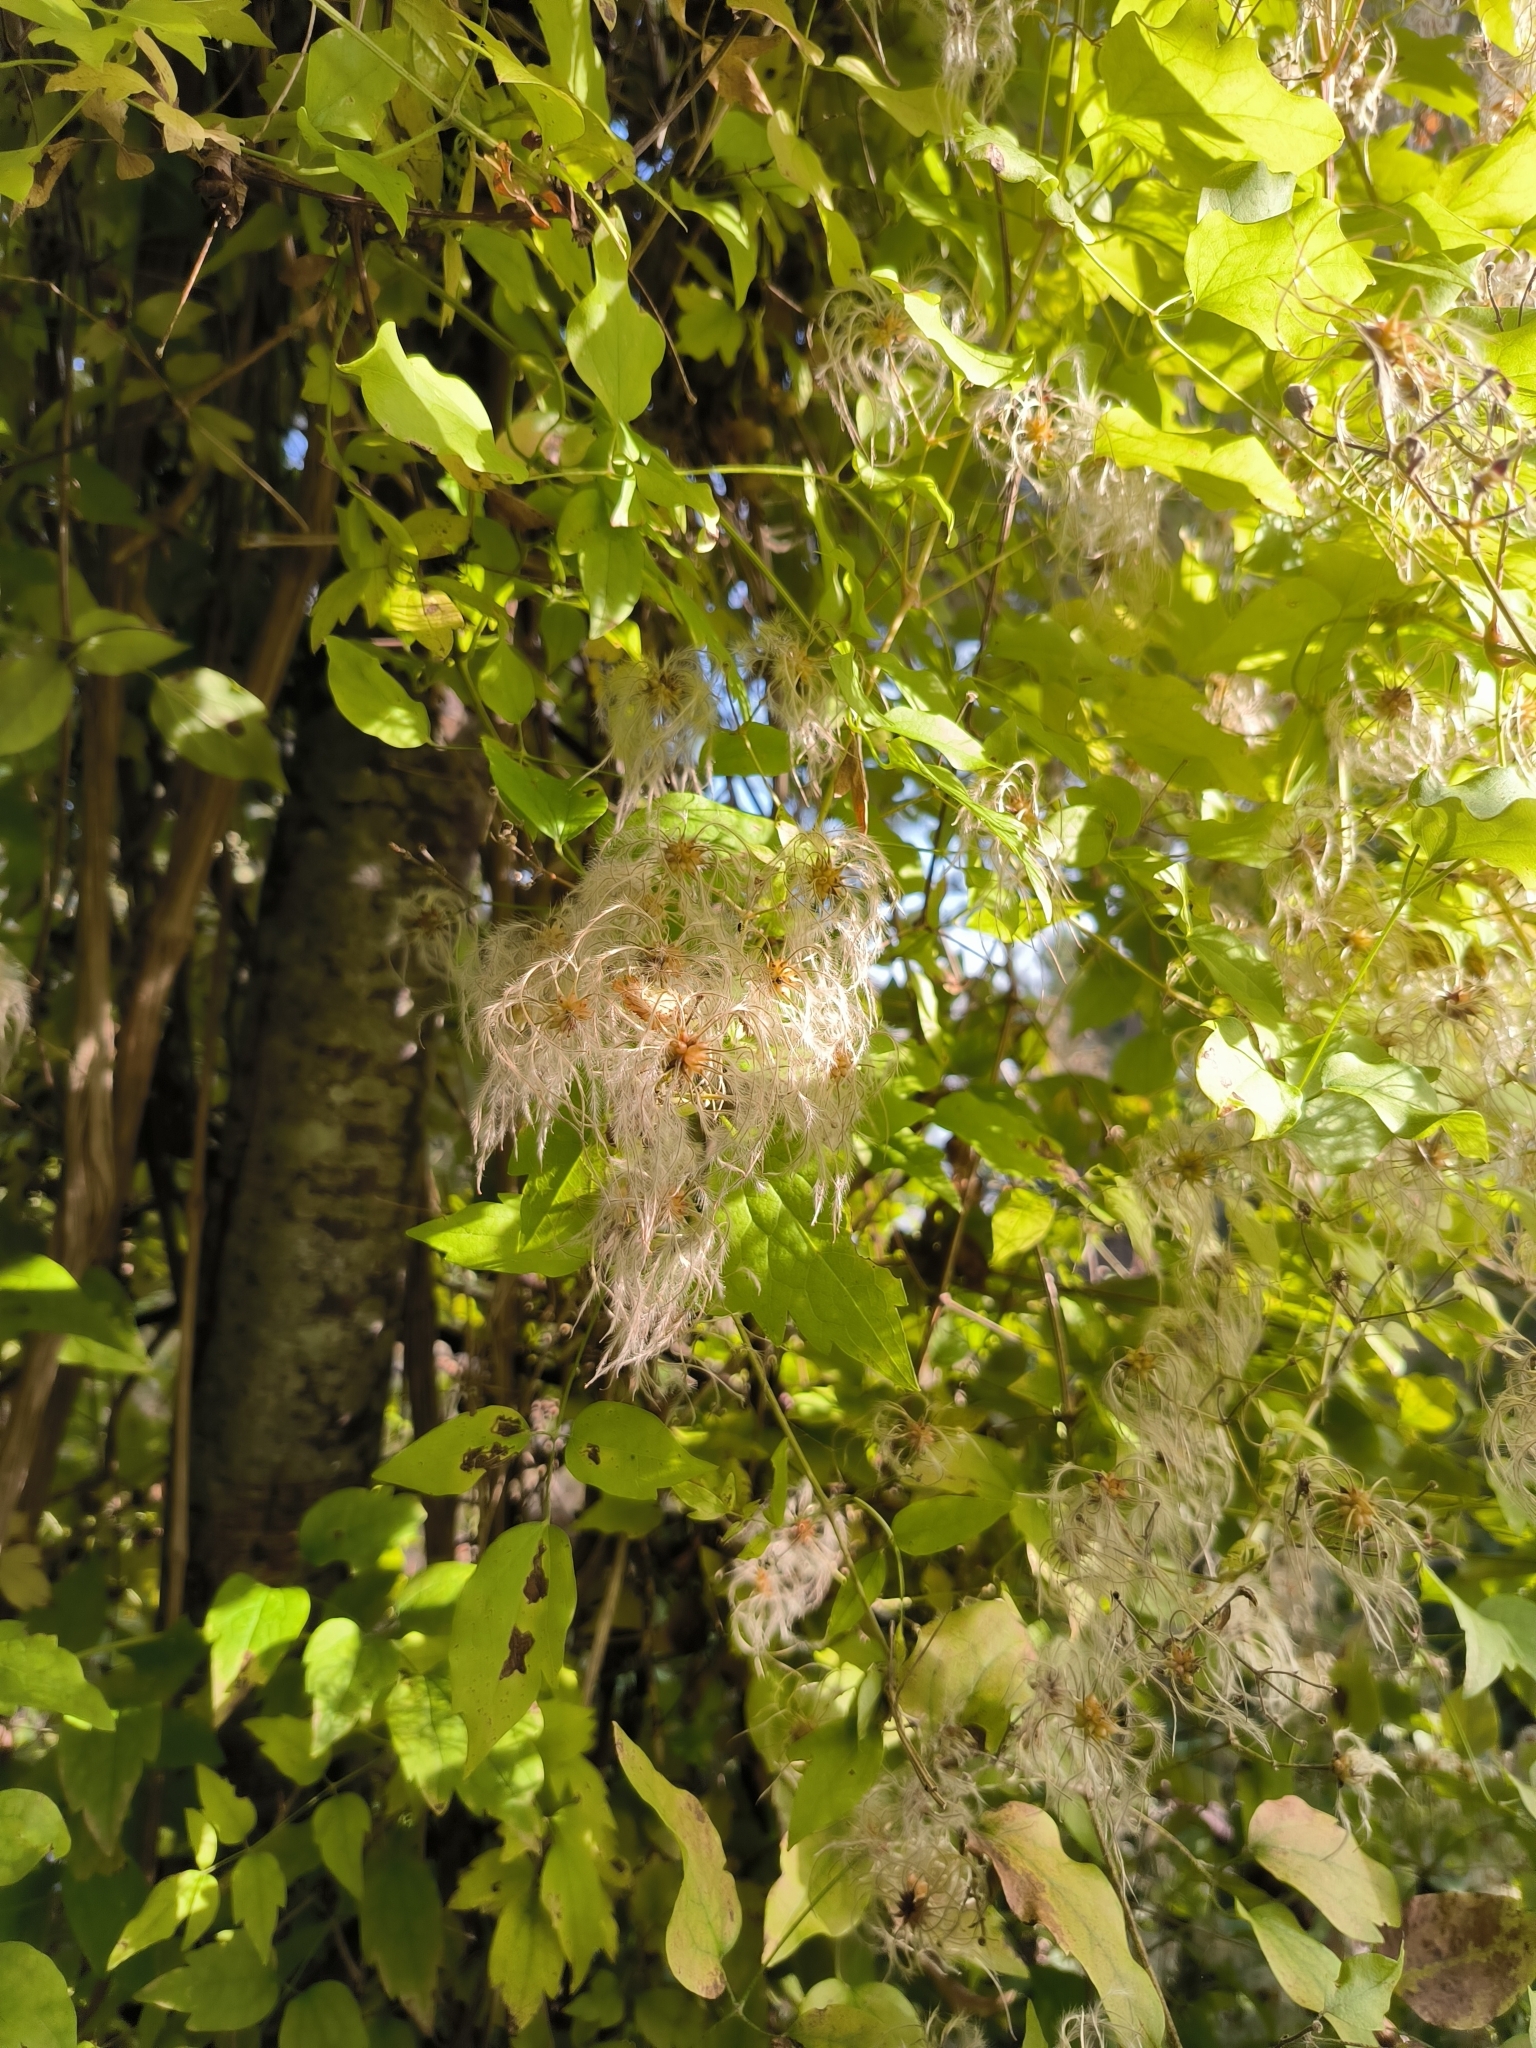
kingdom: Plantae
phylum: Tracheophyta
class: Magnoliopsida
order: Ranunculales
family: Ranunculaceae
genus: Clematis
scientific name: Clematis vitalba
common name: Evergreen clematis
